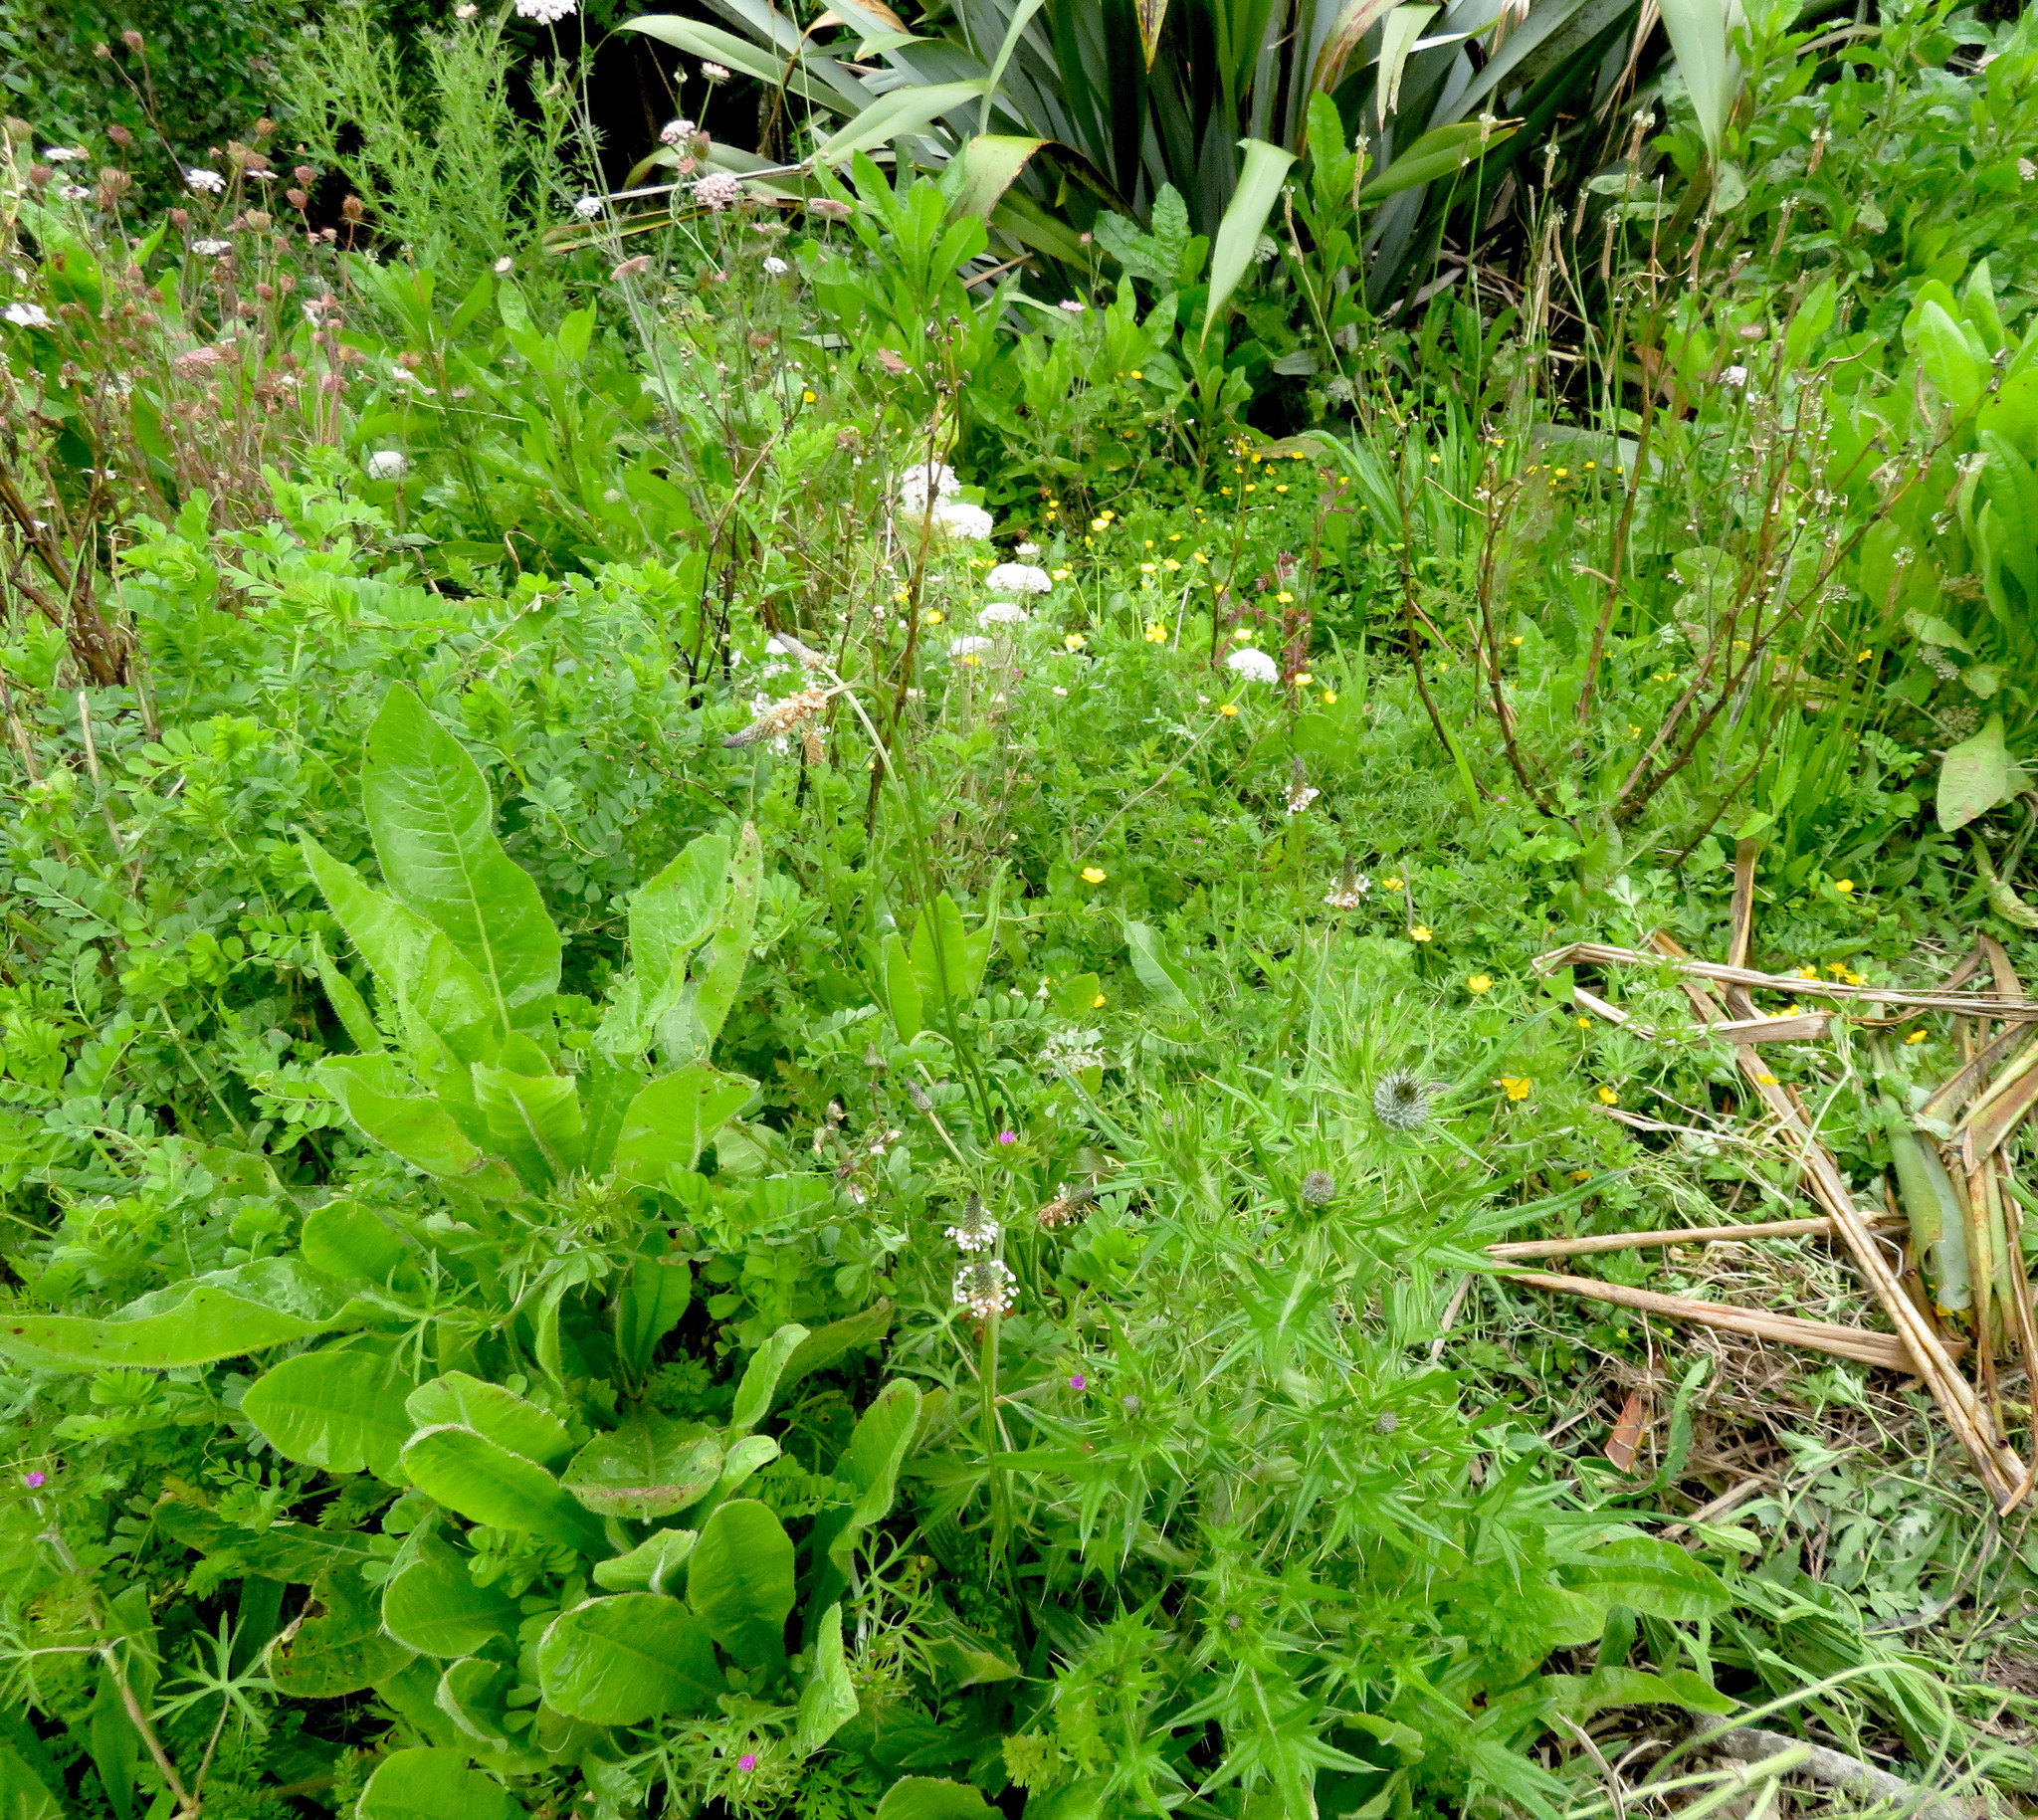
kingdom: Plantae
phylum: Tracheophyta
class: Magnoliopsida
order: Apiales
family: Apiaceae
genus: Daucus
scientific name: Daucus carota
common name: Wild carrot
